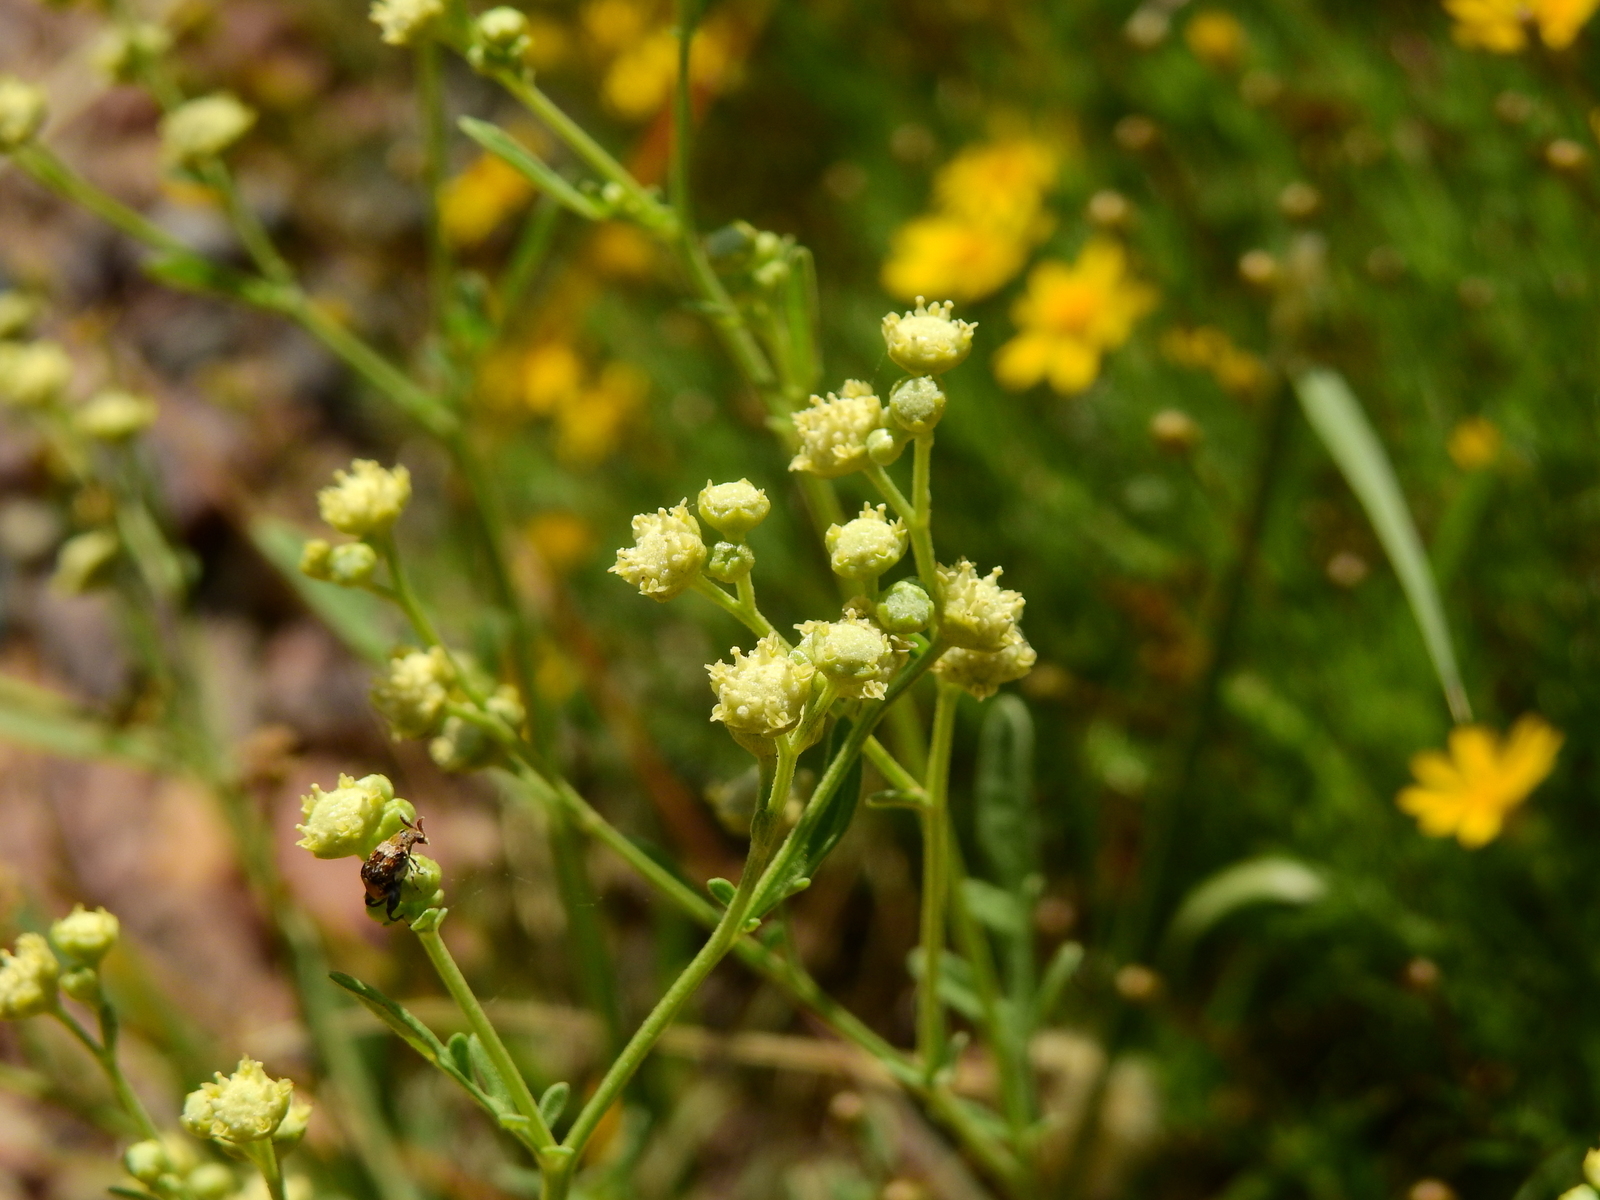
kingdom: Plantae
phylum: Tracheophyta
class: Magnoliopsida
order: Asterales
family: Asteraceae
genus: Parthenium
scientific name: Parthenium hysterophorus
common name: Santa maria feverfew
